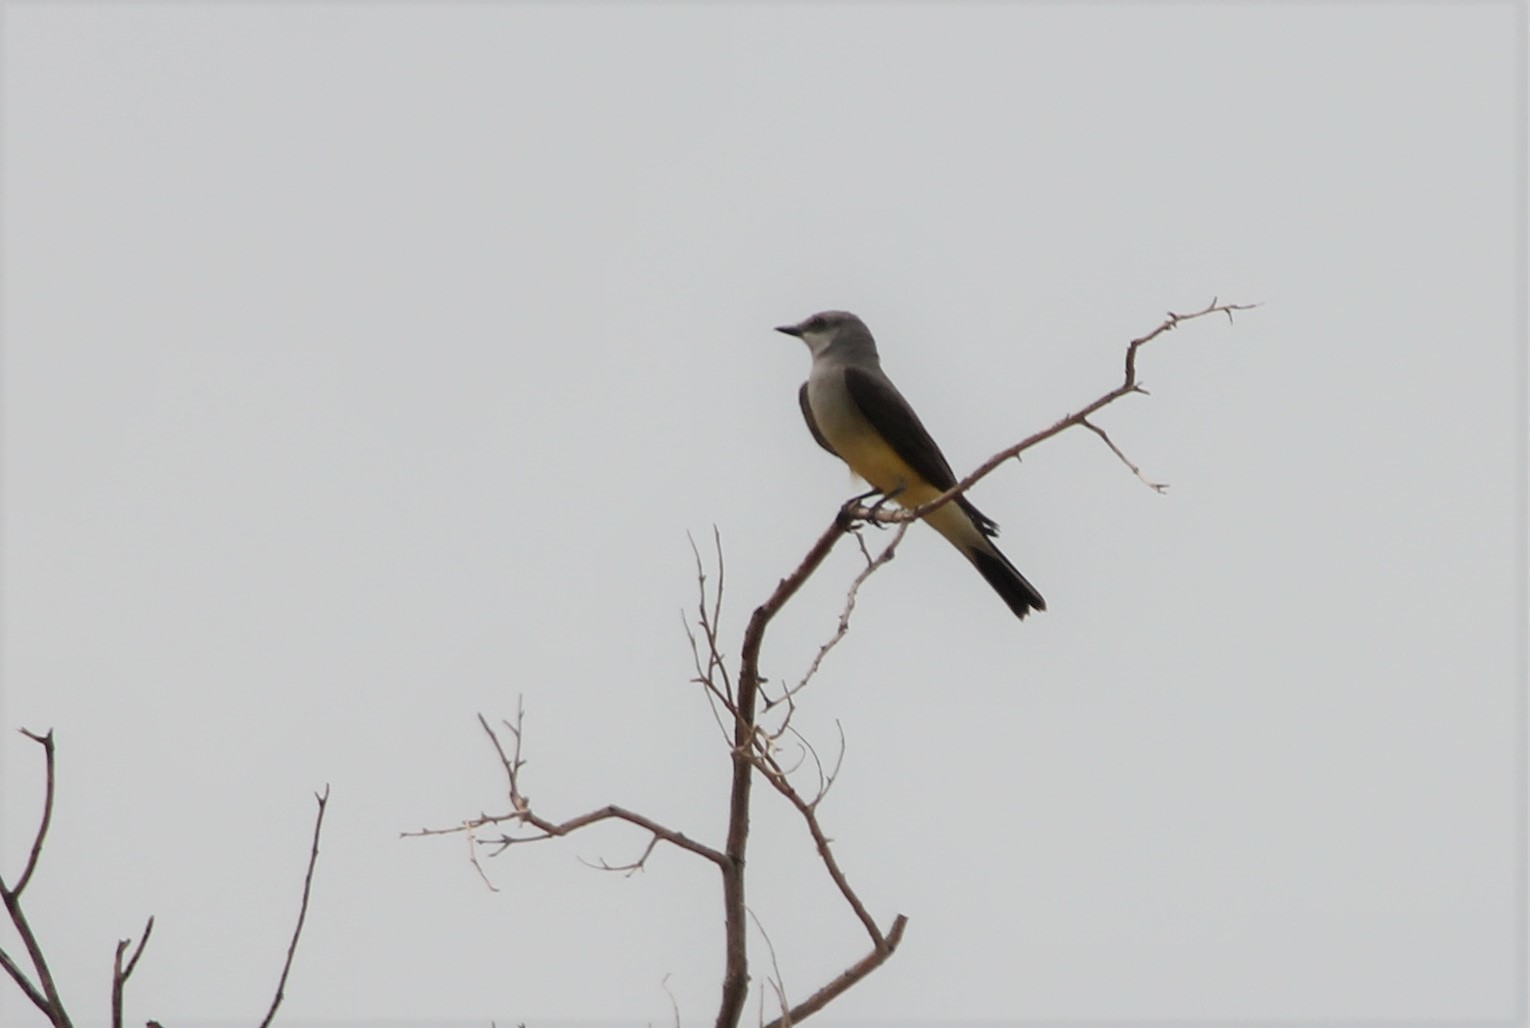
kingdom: Animalia
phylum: Chordata
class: Aves
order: Passeriformes
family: Tyrannidae
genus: Tyrannus
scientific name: Tyrannus verticalis
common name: Western kingbird
